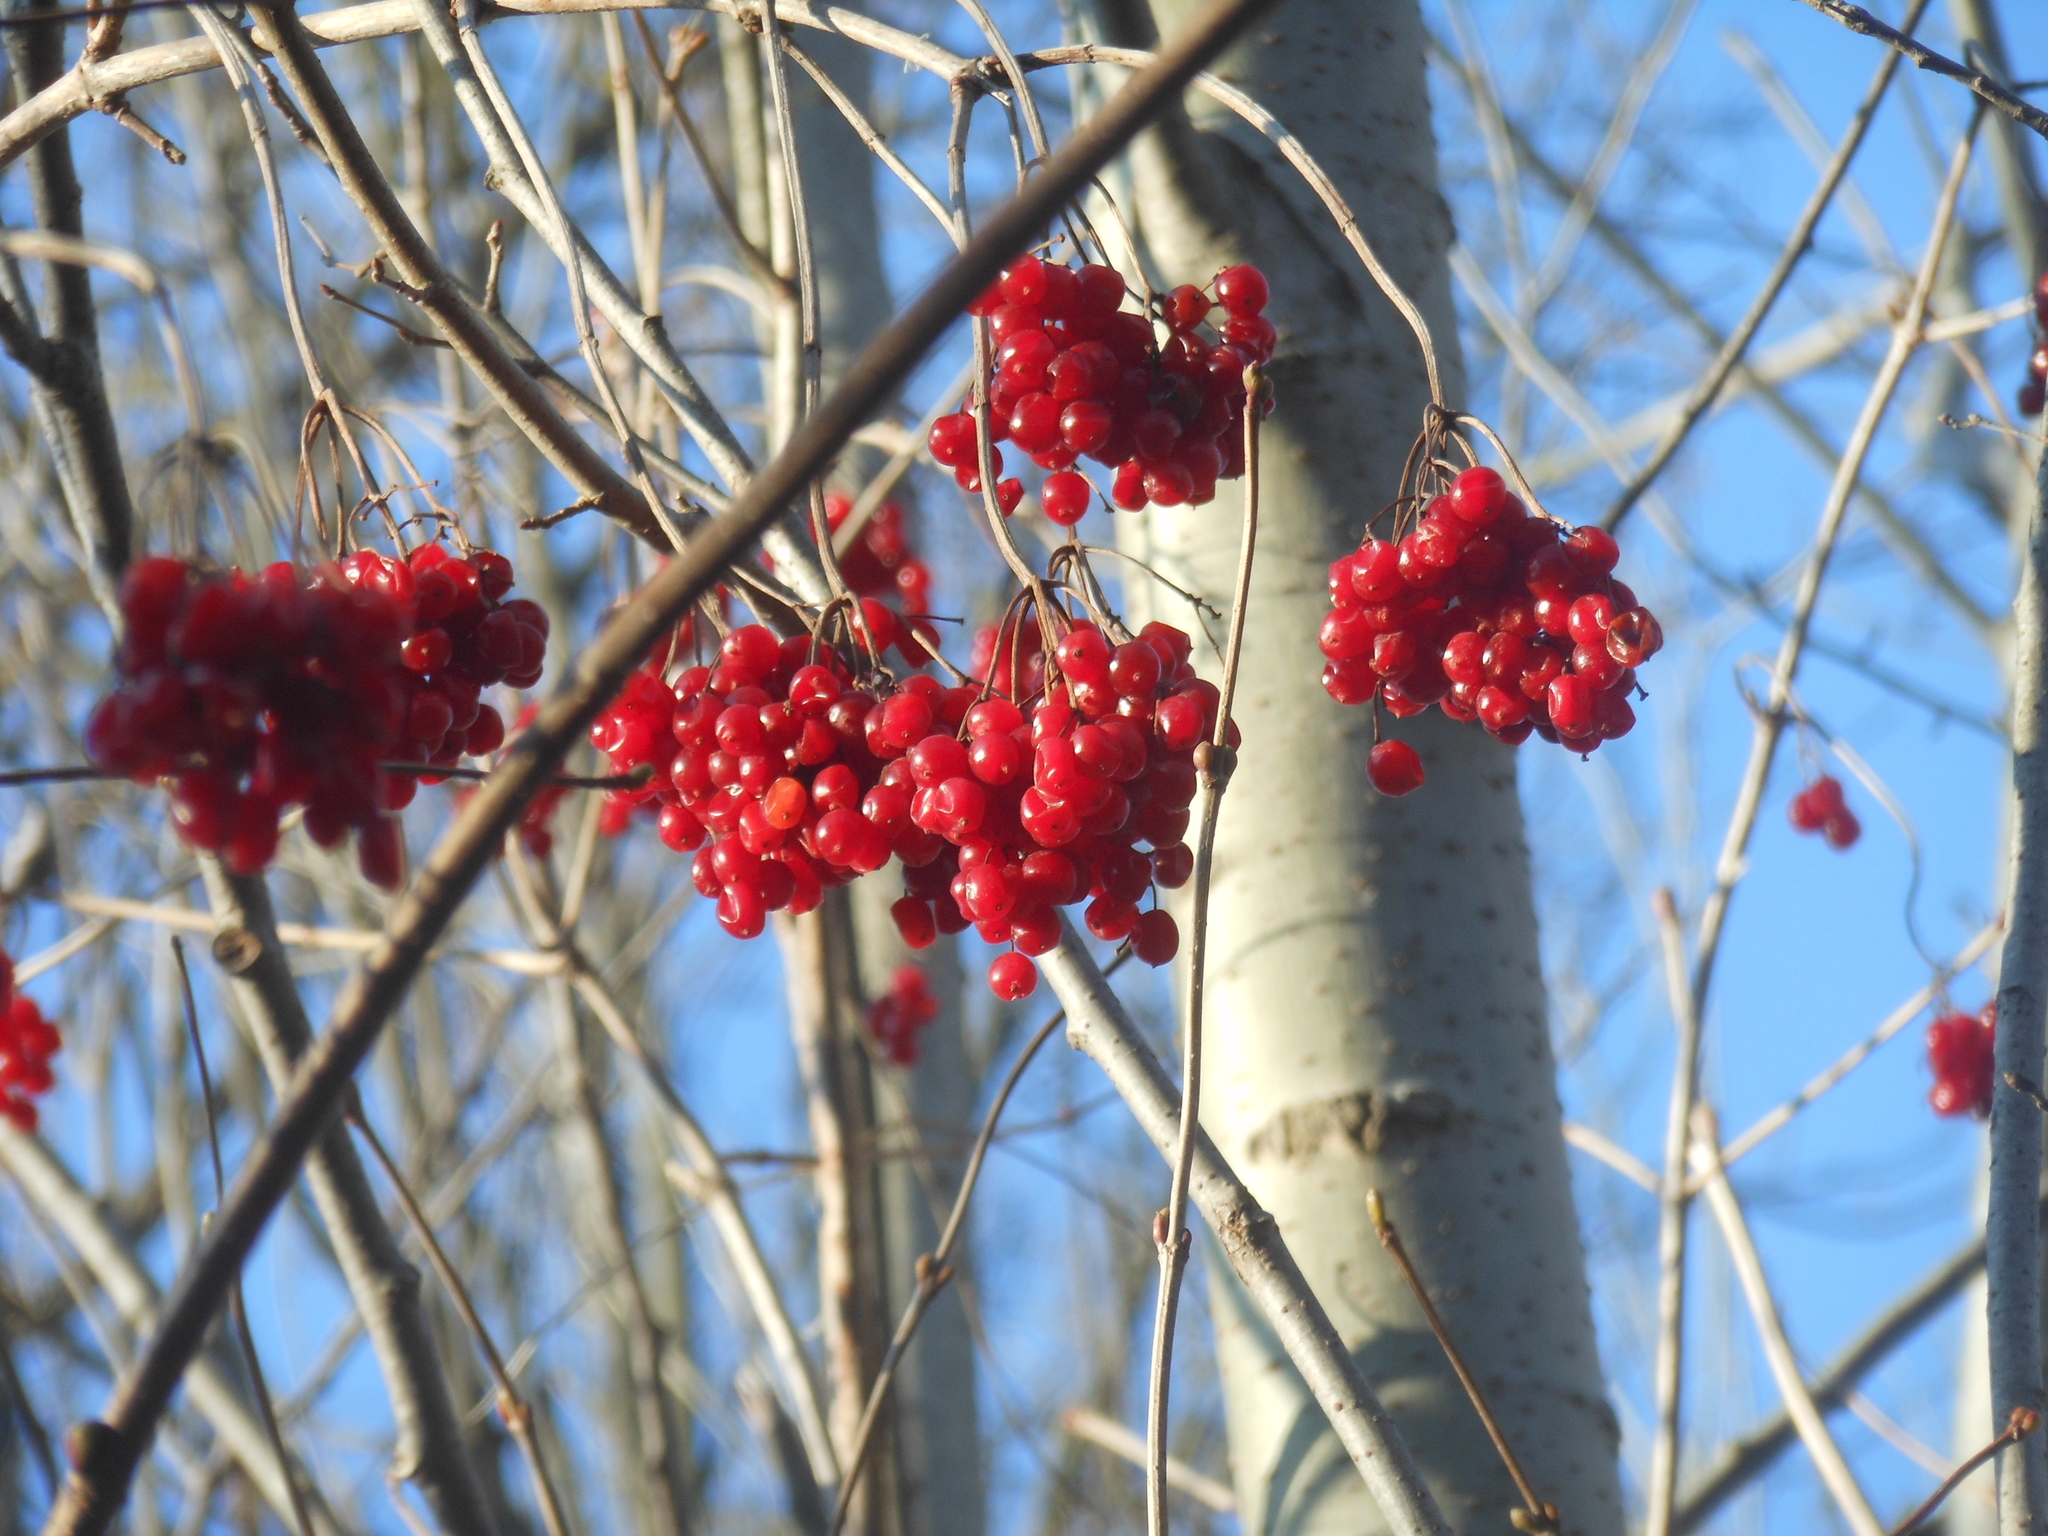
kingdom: Plantae
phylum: Tracheophyta
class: Magnoliopsida
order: Dipsacales
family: Viburnaceae
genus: Viburnum
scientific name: Viburnum opulus
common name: Guelder-rose
